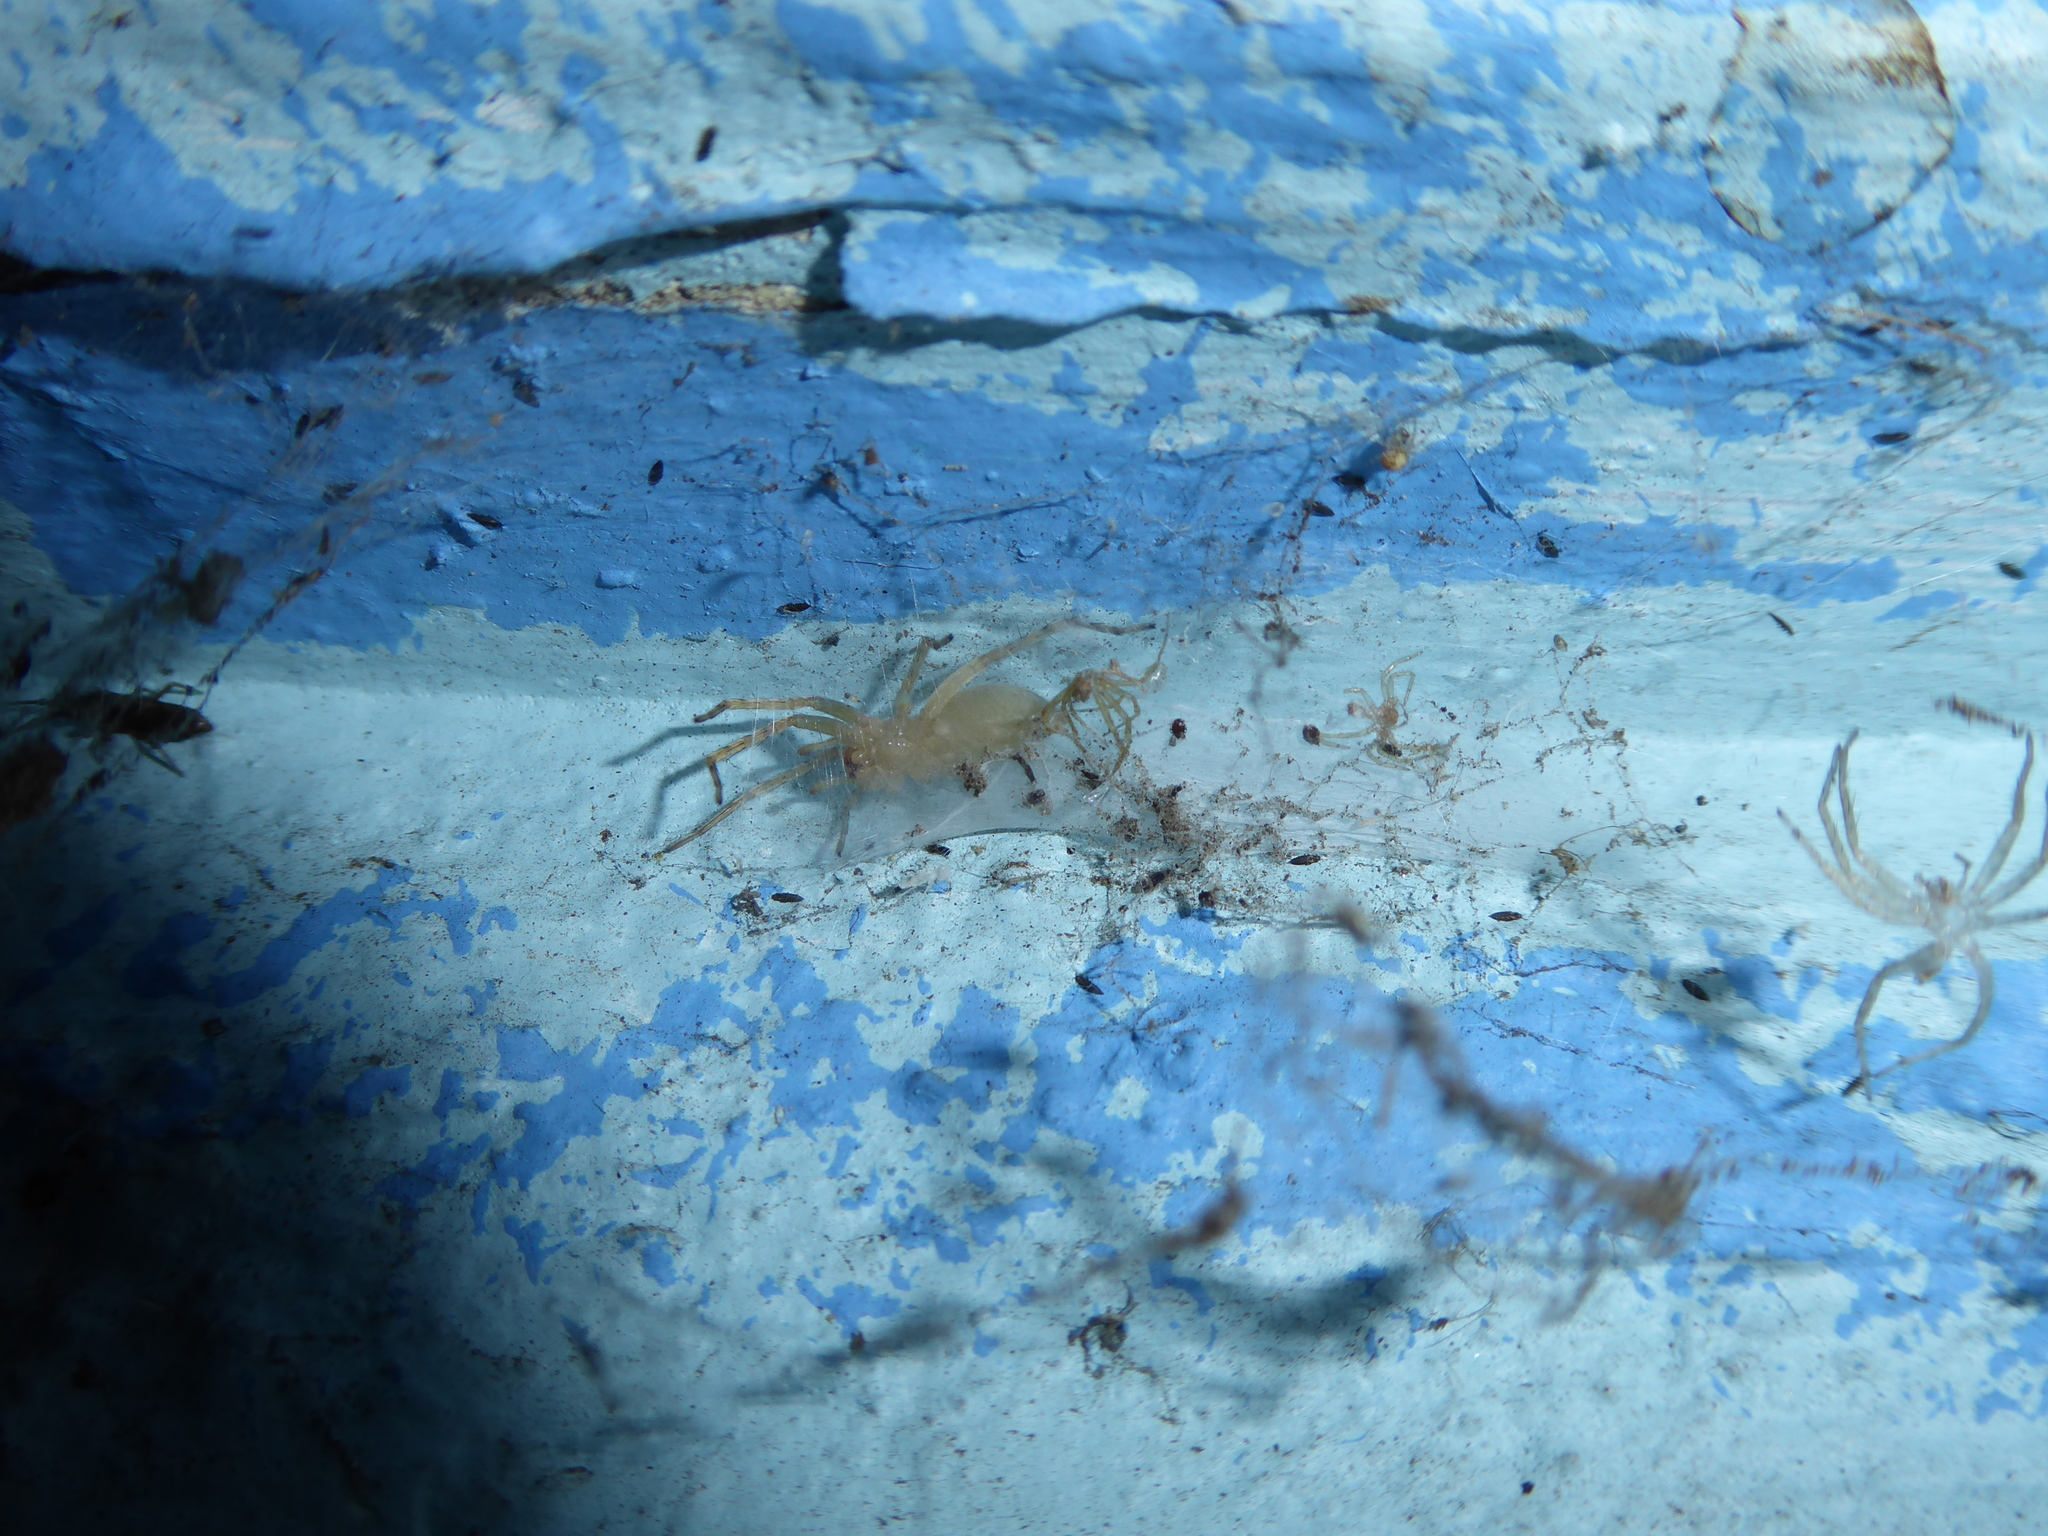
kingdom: Animalia
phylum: Arthropoda
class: Arachnida
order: Araneae
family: Clubionidae
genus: Clubiona
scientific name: Clubiona
